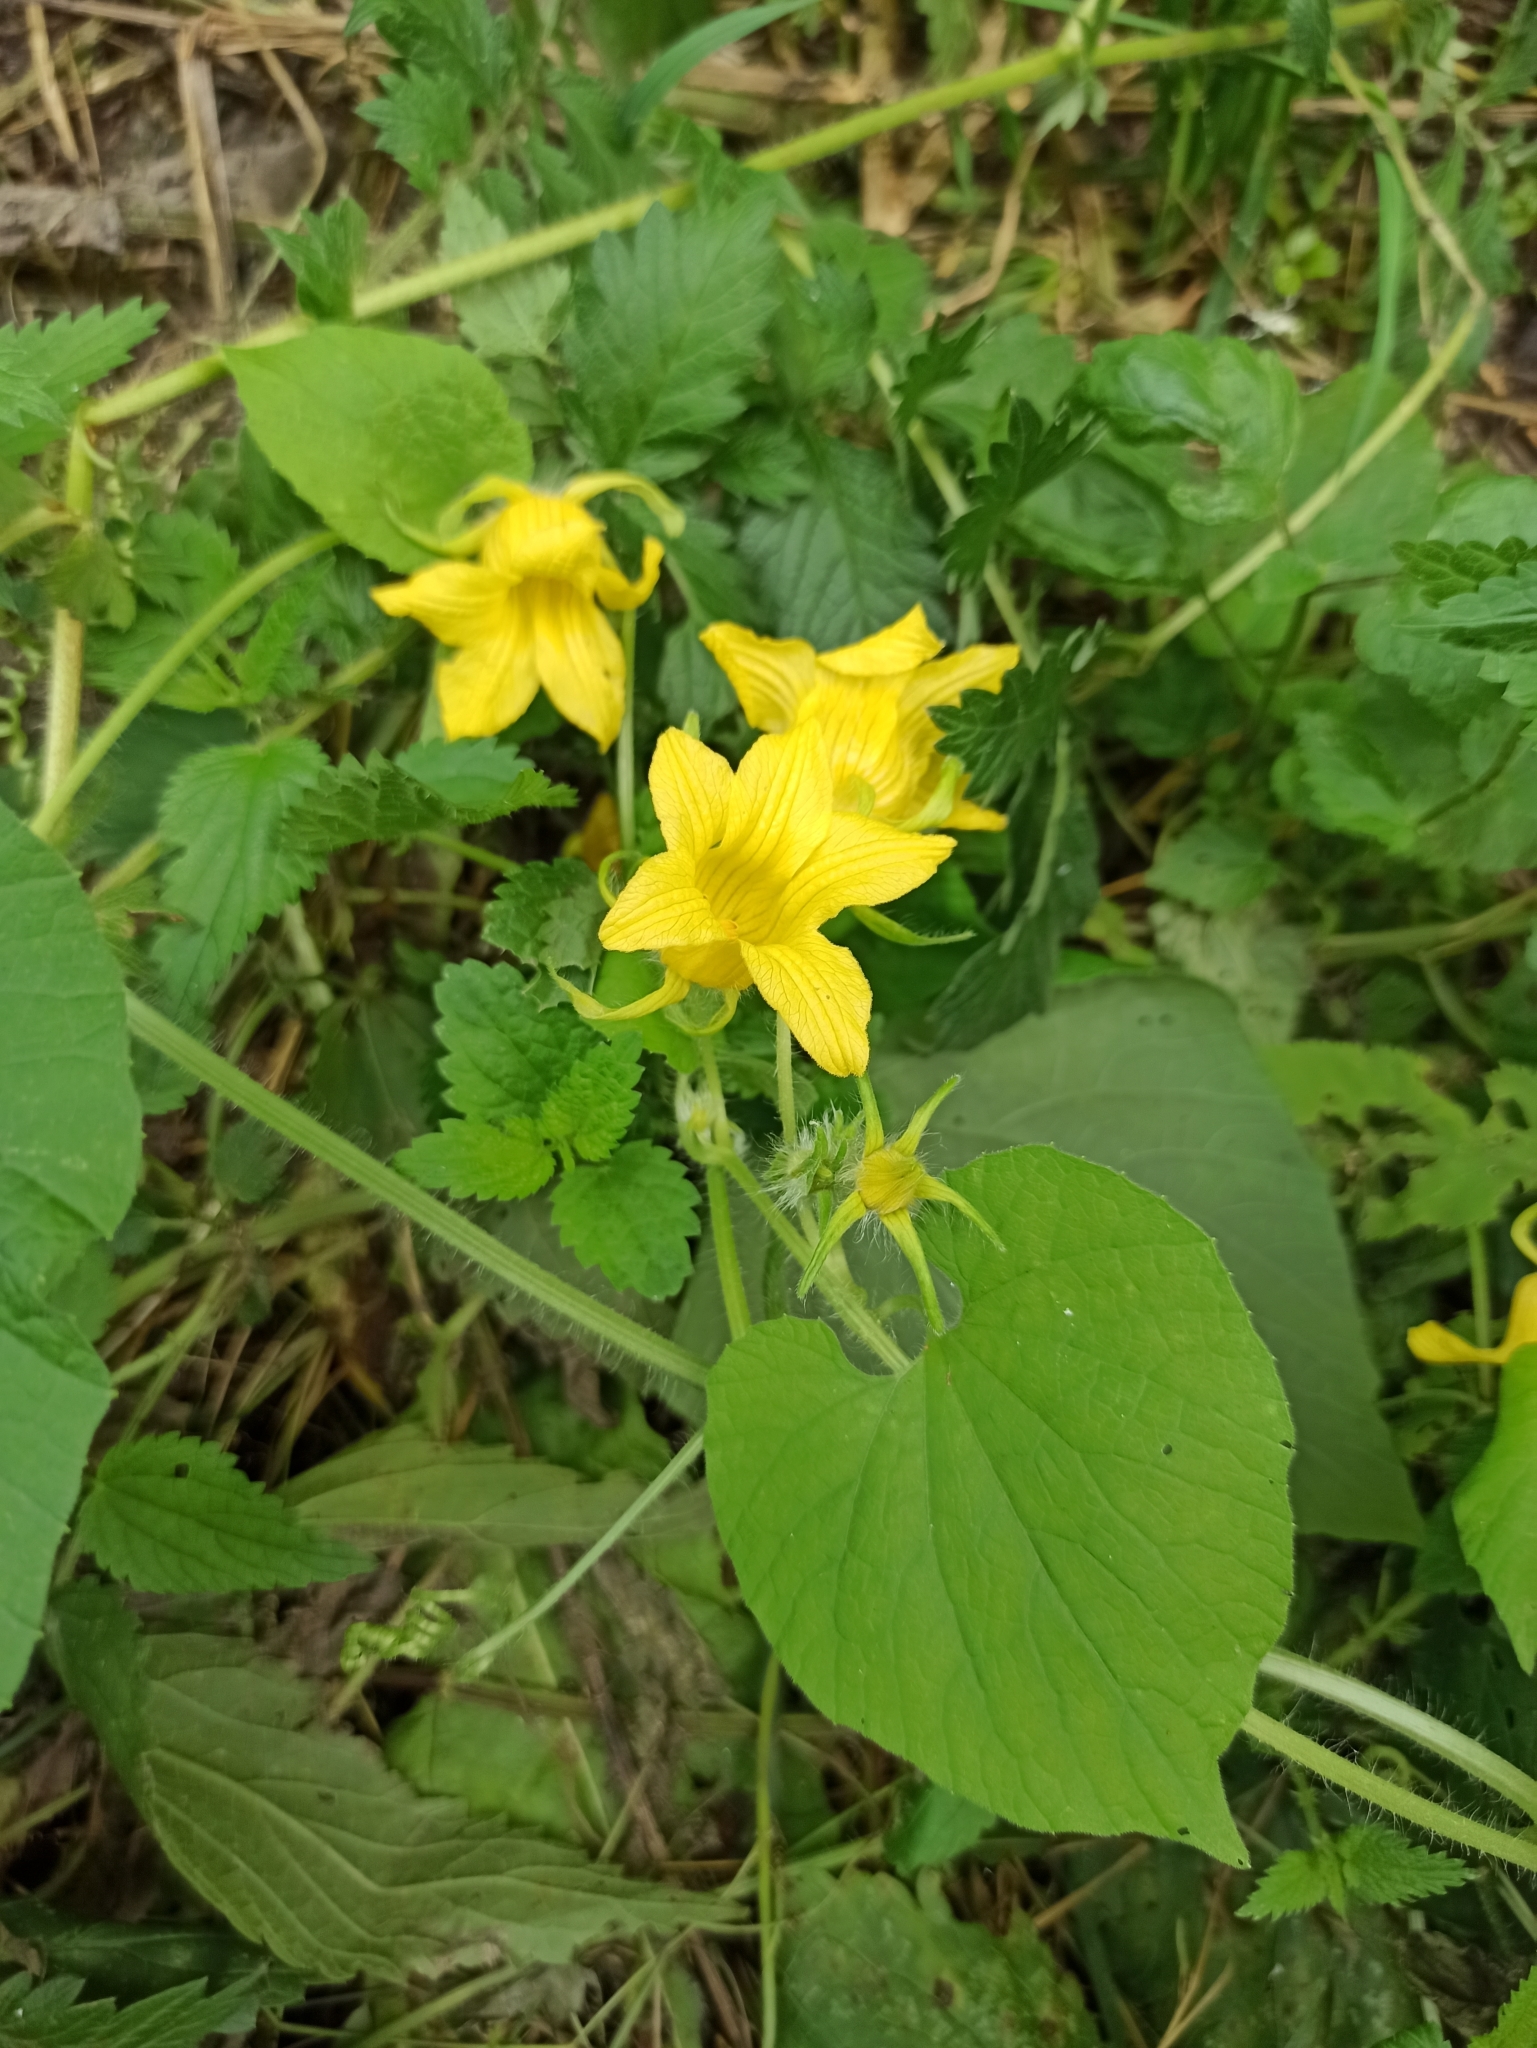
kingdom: Plantae
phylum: Tracheophyta
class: Magnoliopsida
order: Cucurbitales
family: Cucurbitaceae
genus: Thladiantha
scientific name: Thladiantha dubia
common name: Manchu tubergourd
